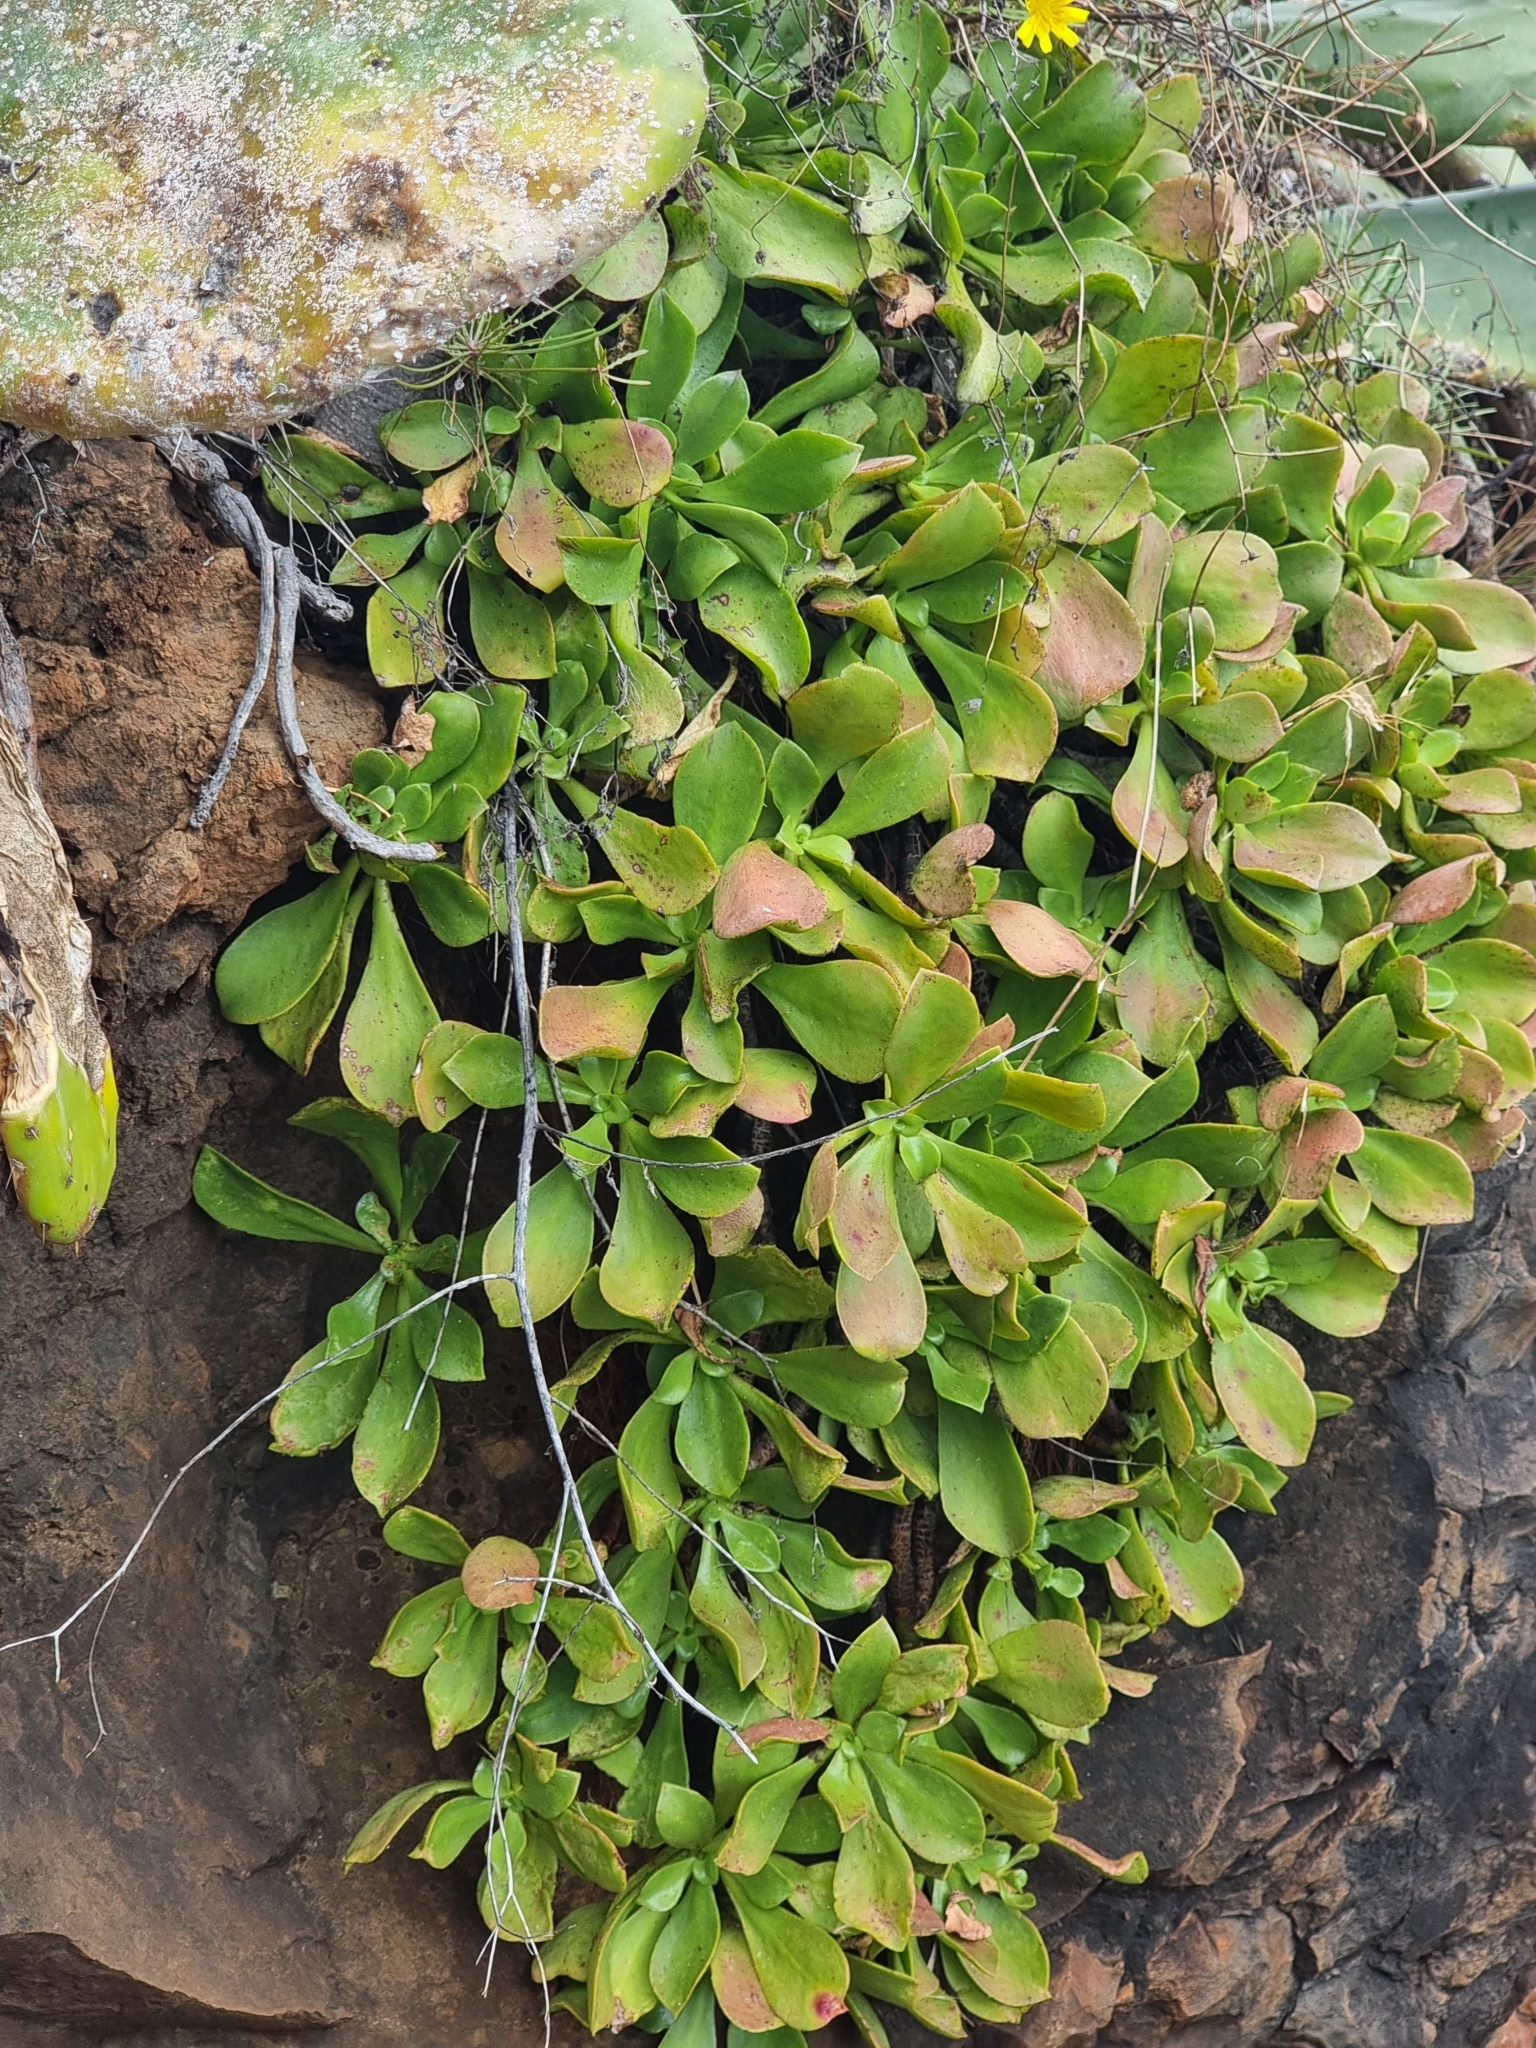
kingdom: Plantae
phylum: Tracheophyta
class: Magnoliopsida
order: Saxifragales
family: Crassulaceae
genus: Aeonium
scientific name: Aeonium glutinosum
